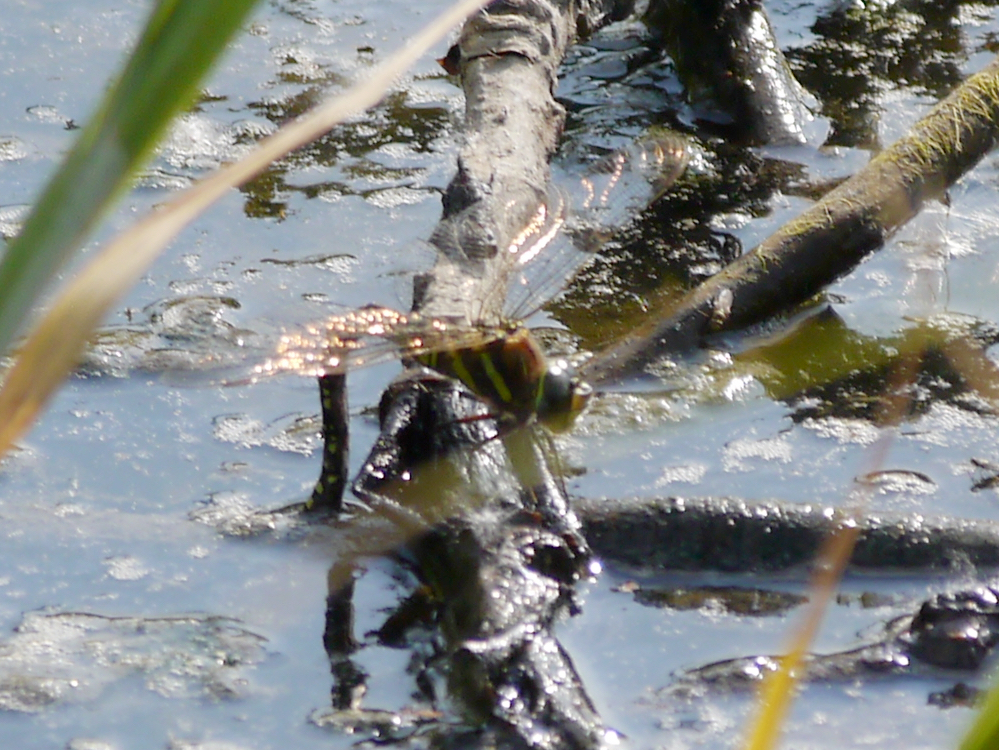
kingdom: Animalia
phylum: Arthropoda
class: Insecta
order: Odonata
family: Aeshnidae
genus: Aeshna
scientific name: Aeshna juncea
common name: Moorland hawker
